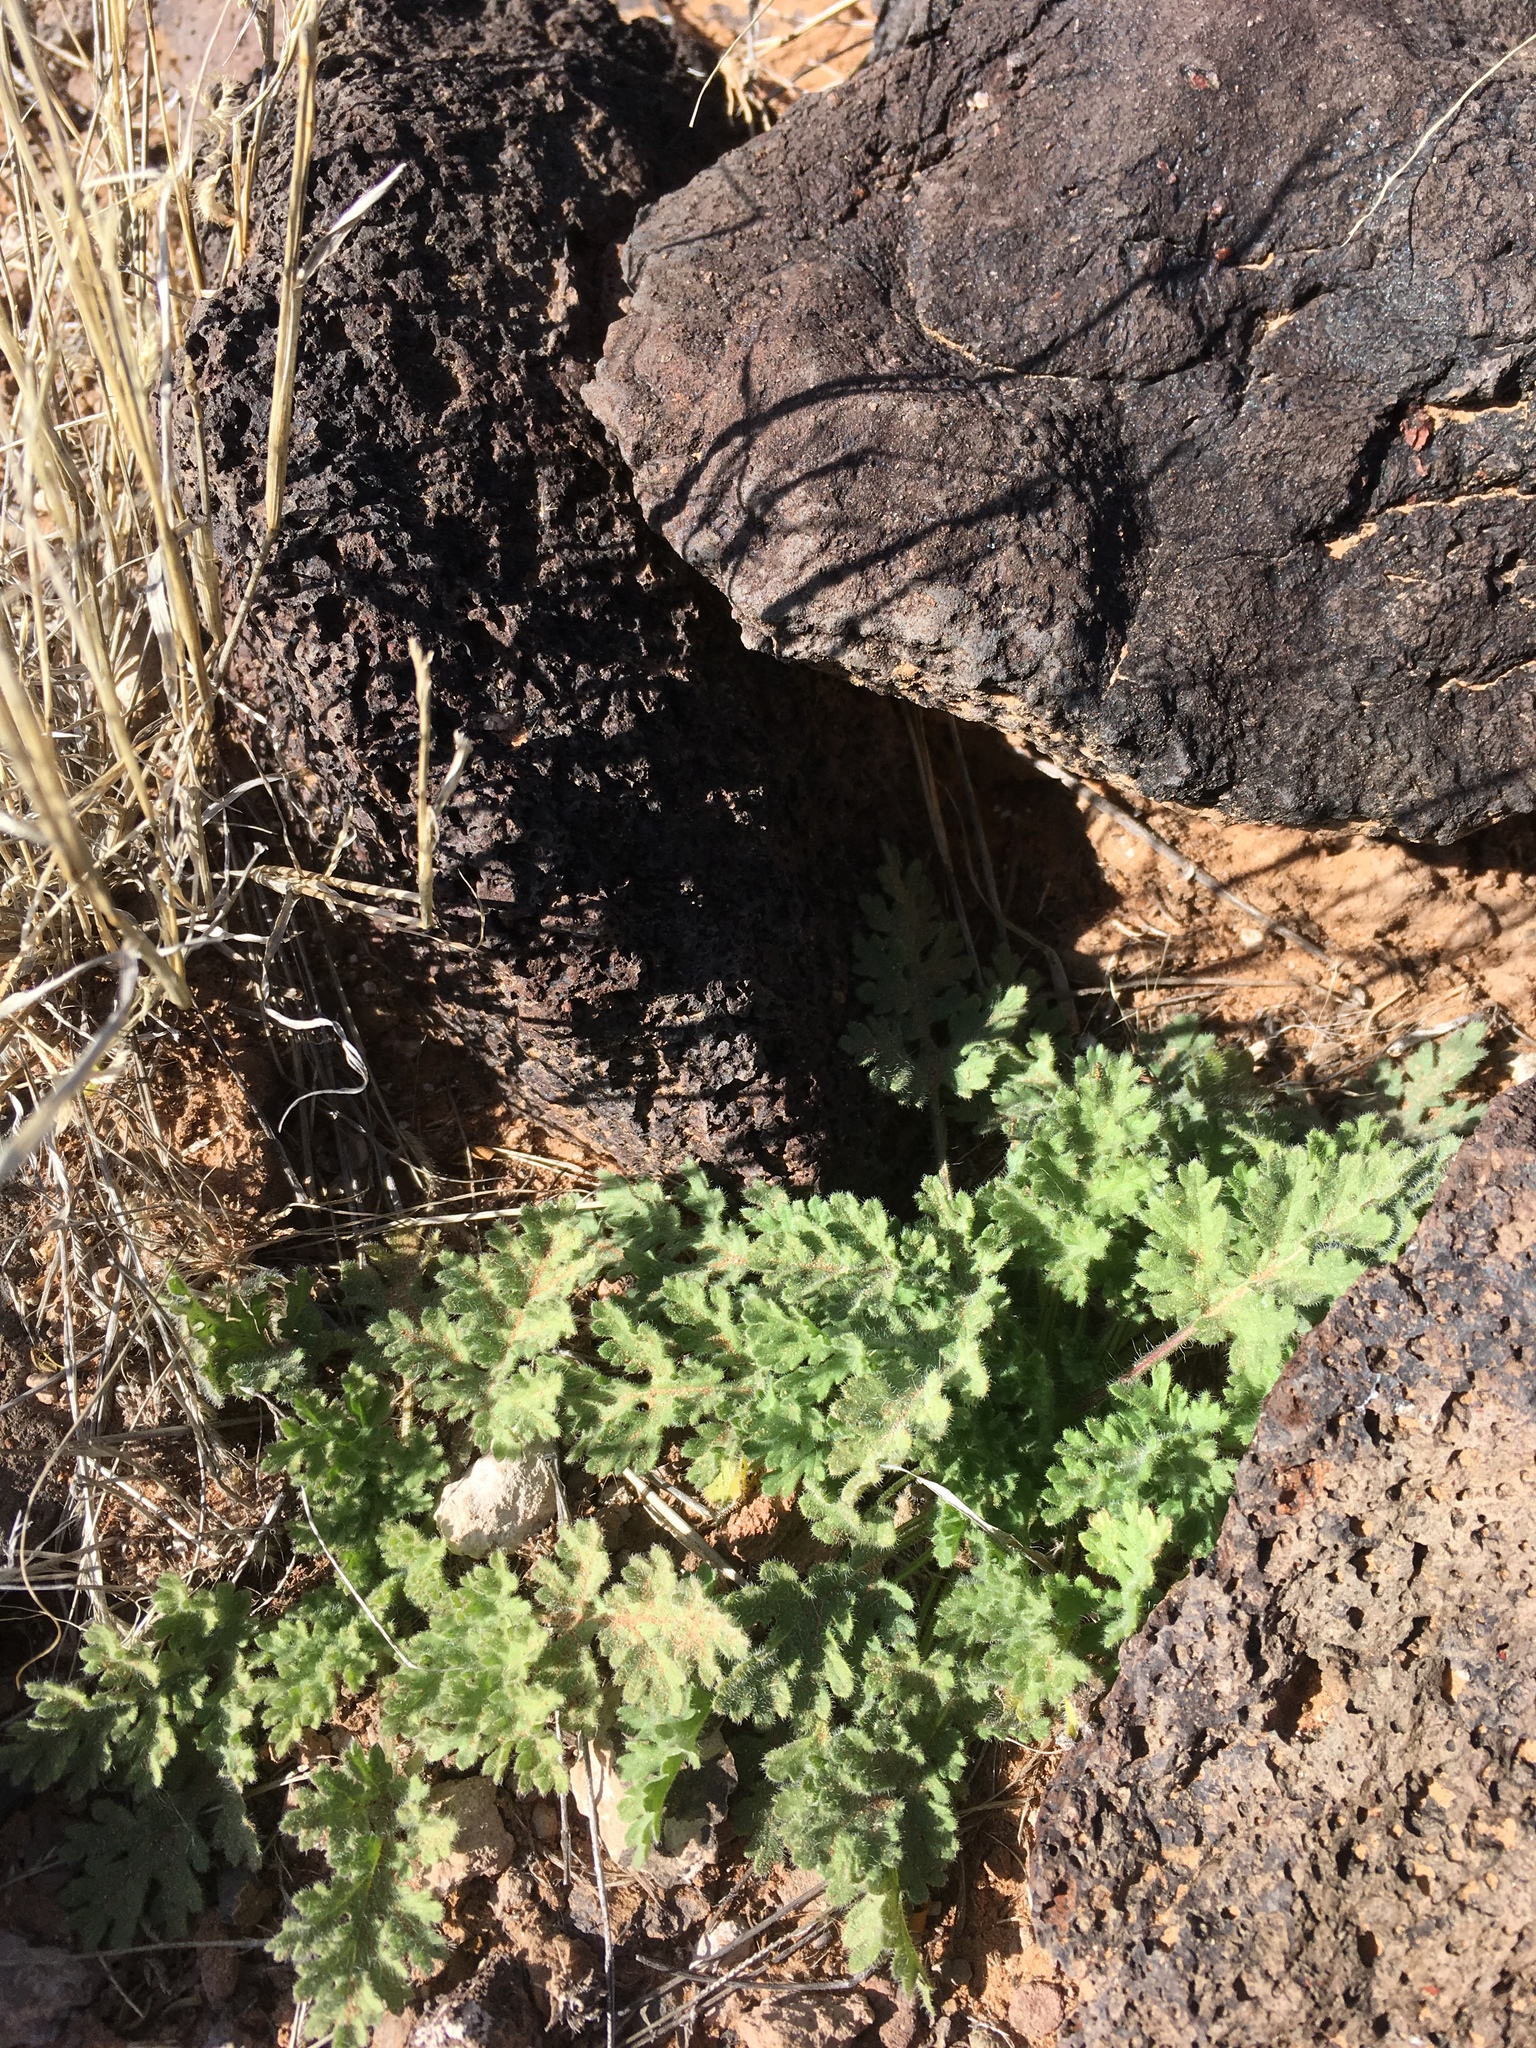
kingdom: Plantae
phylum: Tracheophyta
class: Magnoliopsida
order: Asterales
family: Asteraceae
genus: Hedosyne
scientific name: Hedosyne ambrosiifolia
